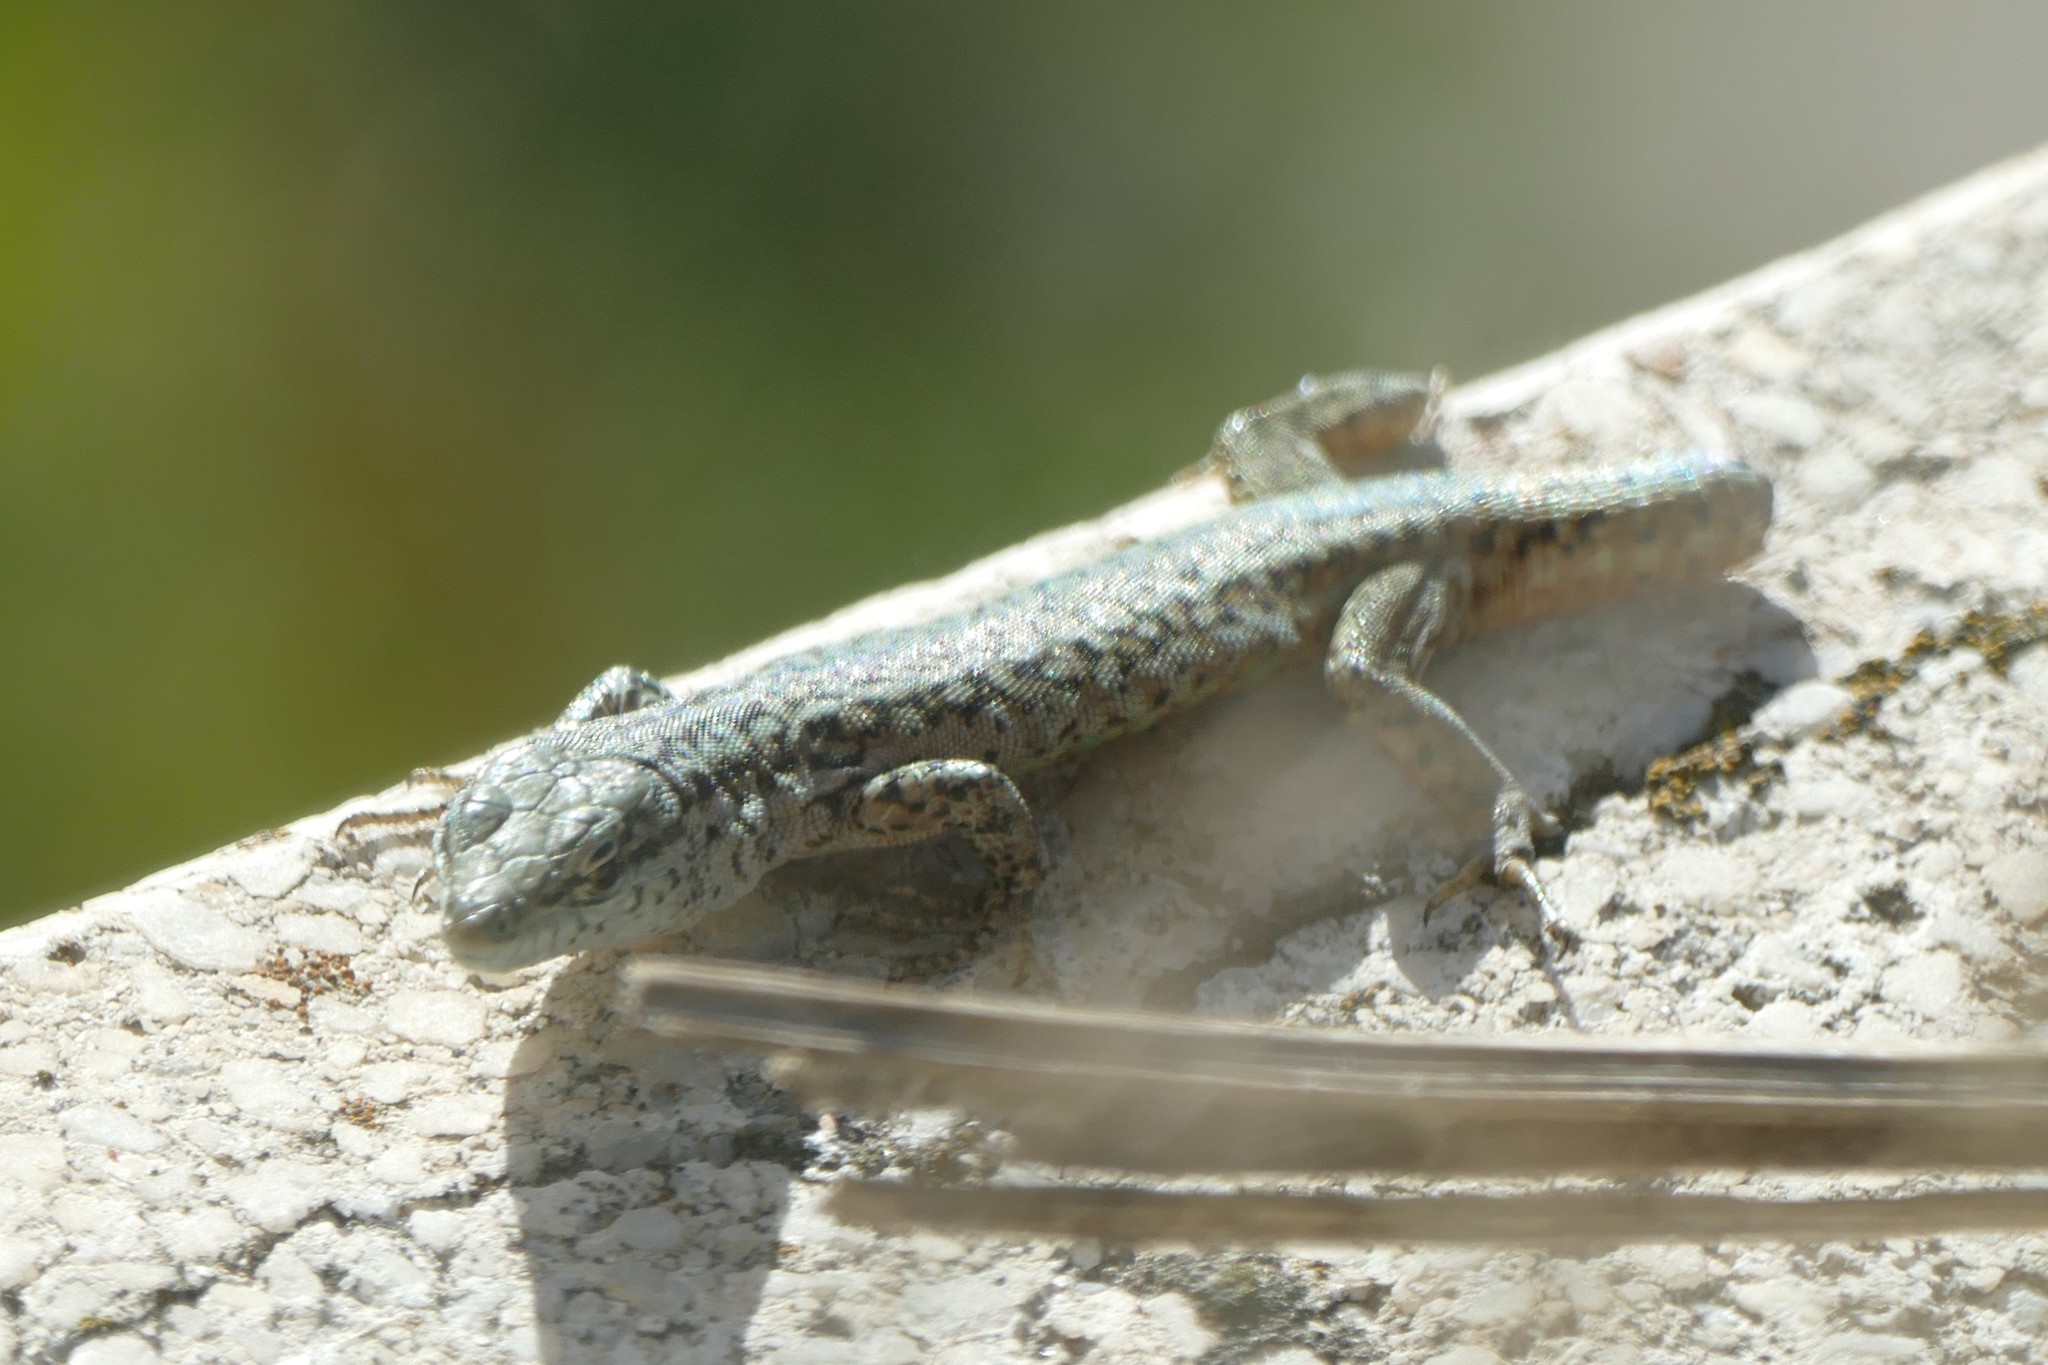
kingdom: Animalia
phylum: Chordata
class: Squamata
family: Lacertidae
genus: Podarcis
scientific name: Podarcis virescens
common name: Geniez’s wall lizard
